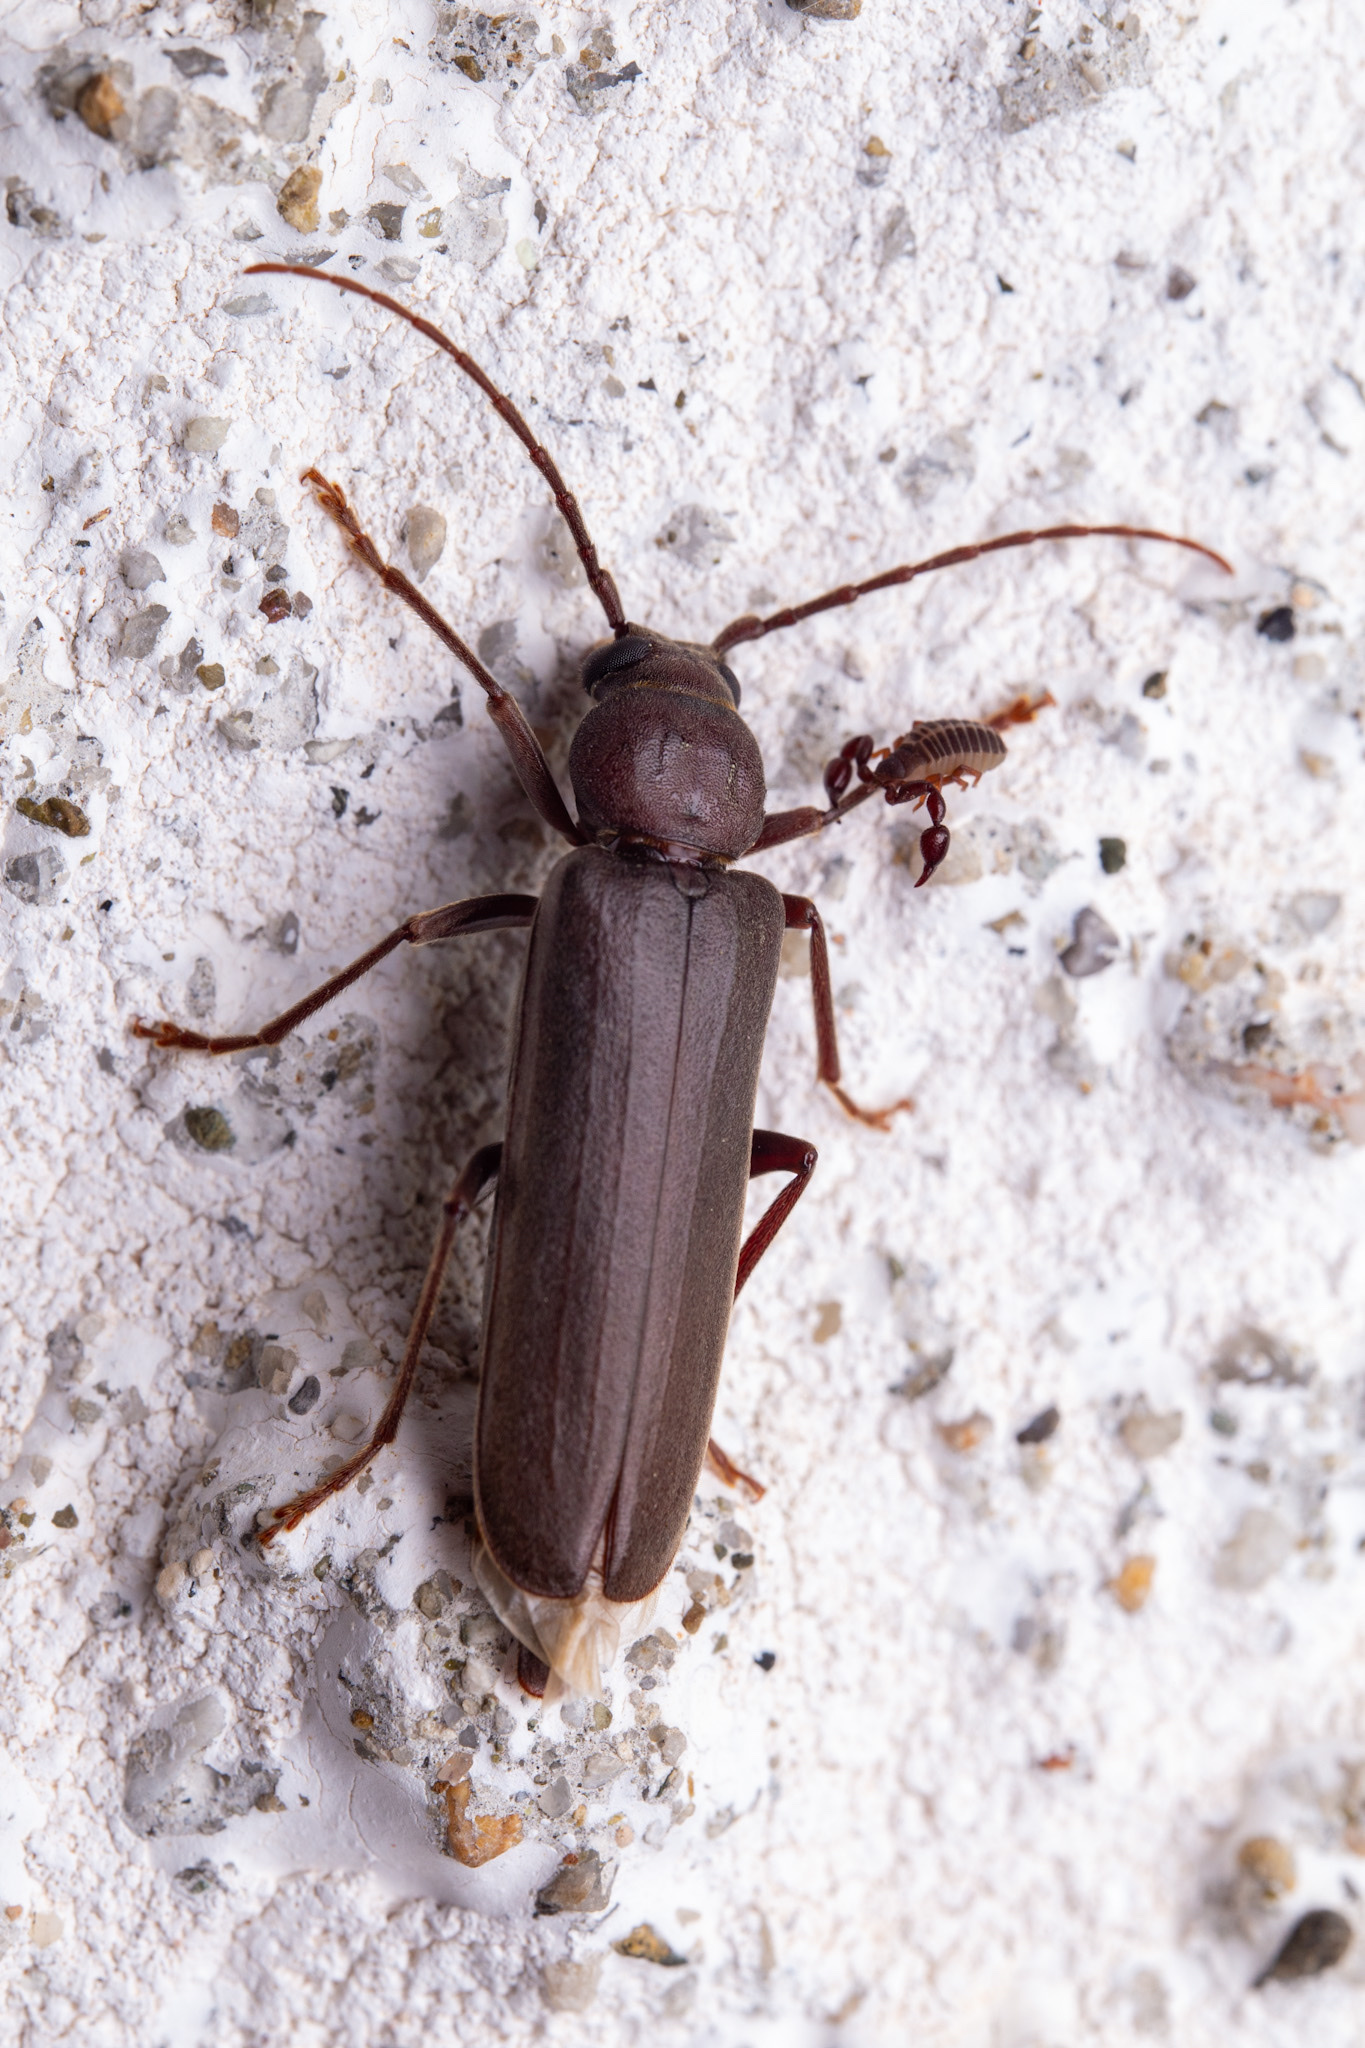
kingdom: Animalia
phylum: Arthropoda
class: Insecta
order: Coleoptera
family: Cerambycidae
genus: Arhopalus
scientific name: Arhopalus rusticus
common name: Rust pine borer
